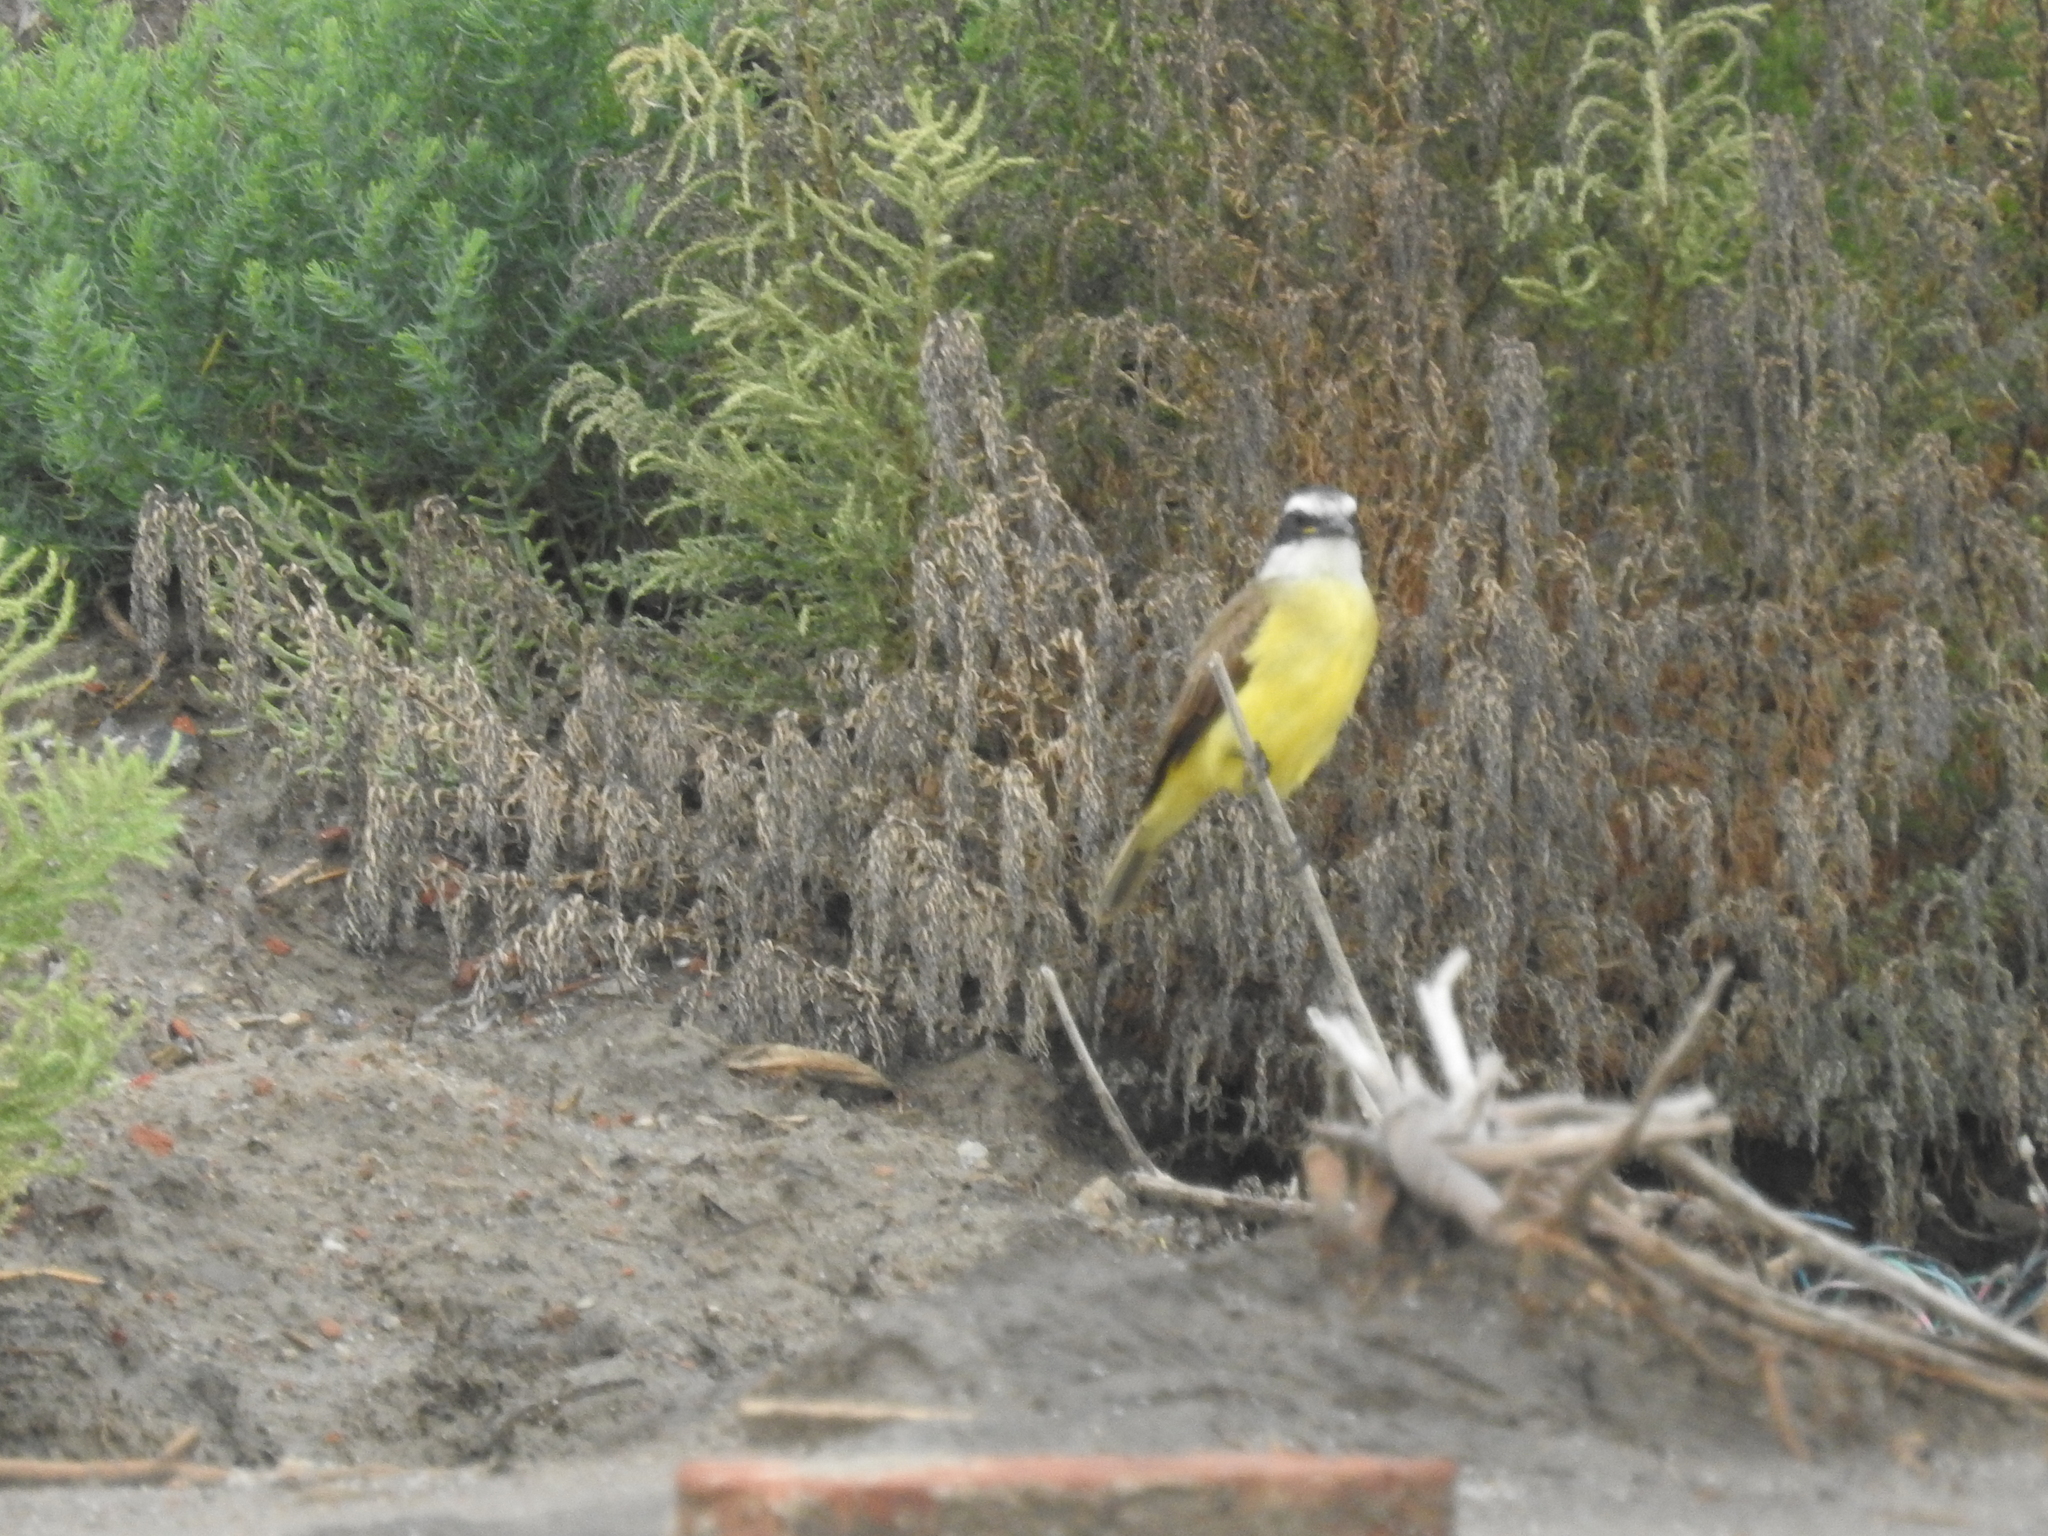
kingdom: Animalia
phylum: Chordata
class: Aves
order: Passeriformes
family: Tyrannidae
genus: Pitangus
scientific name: Pitangus sulphuratus
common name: Great kiskadee
